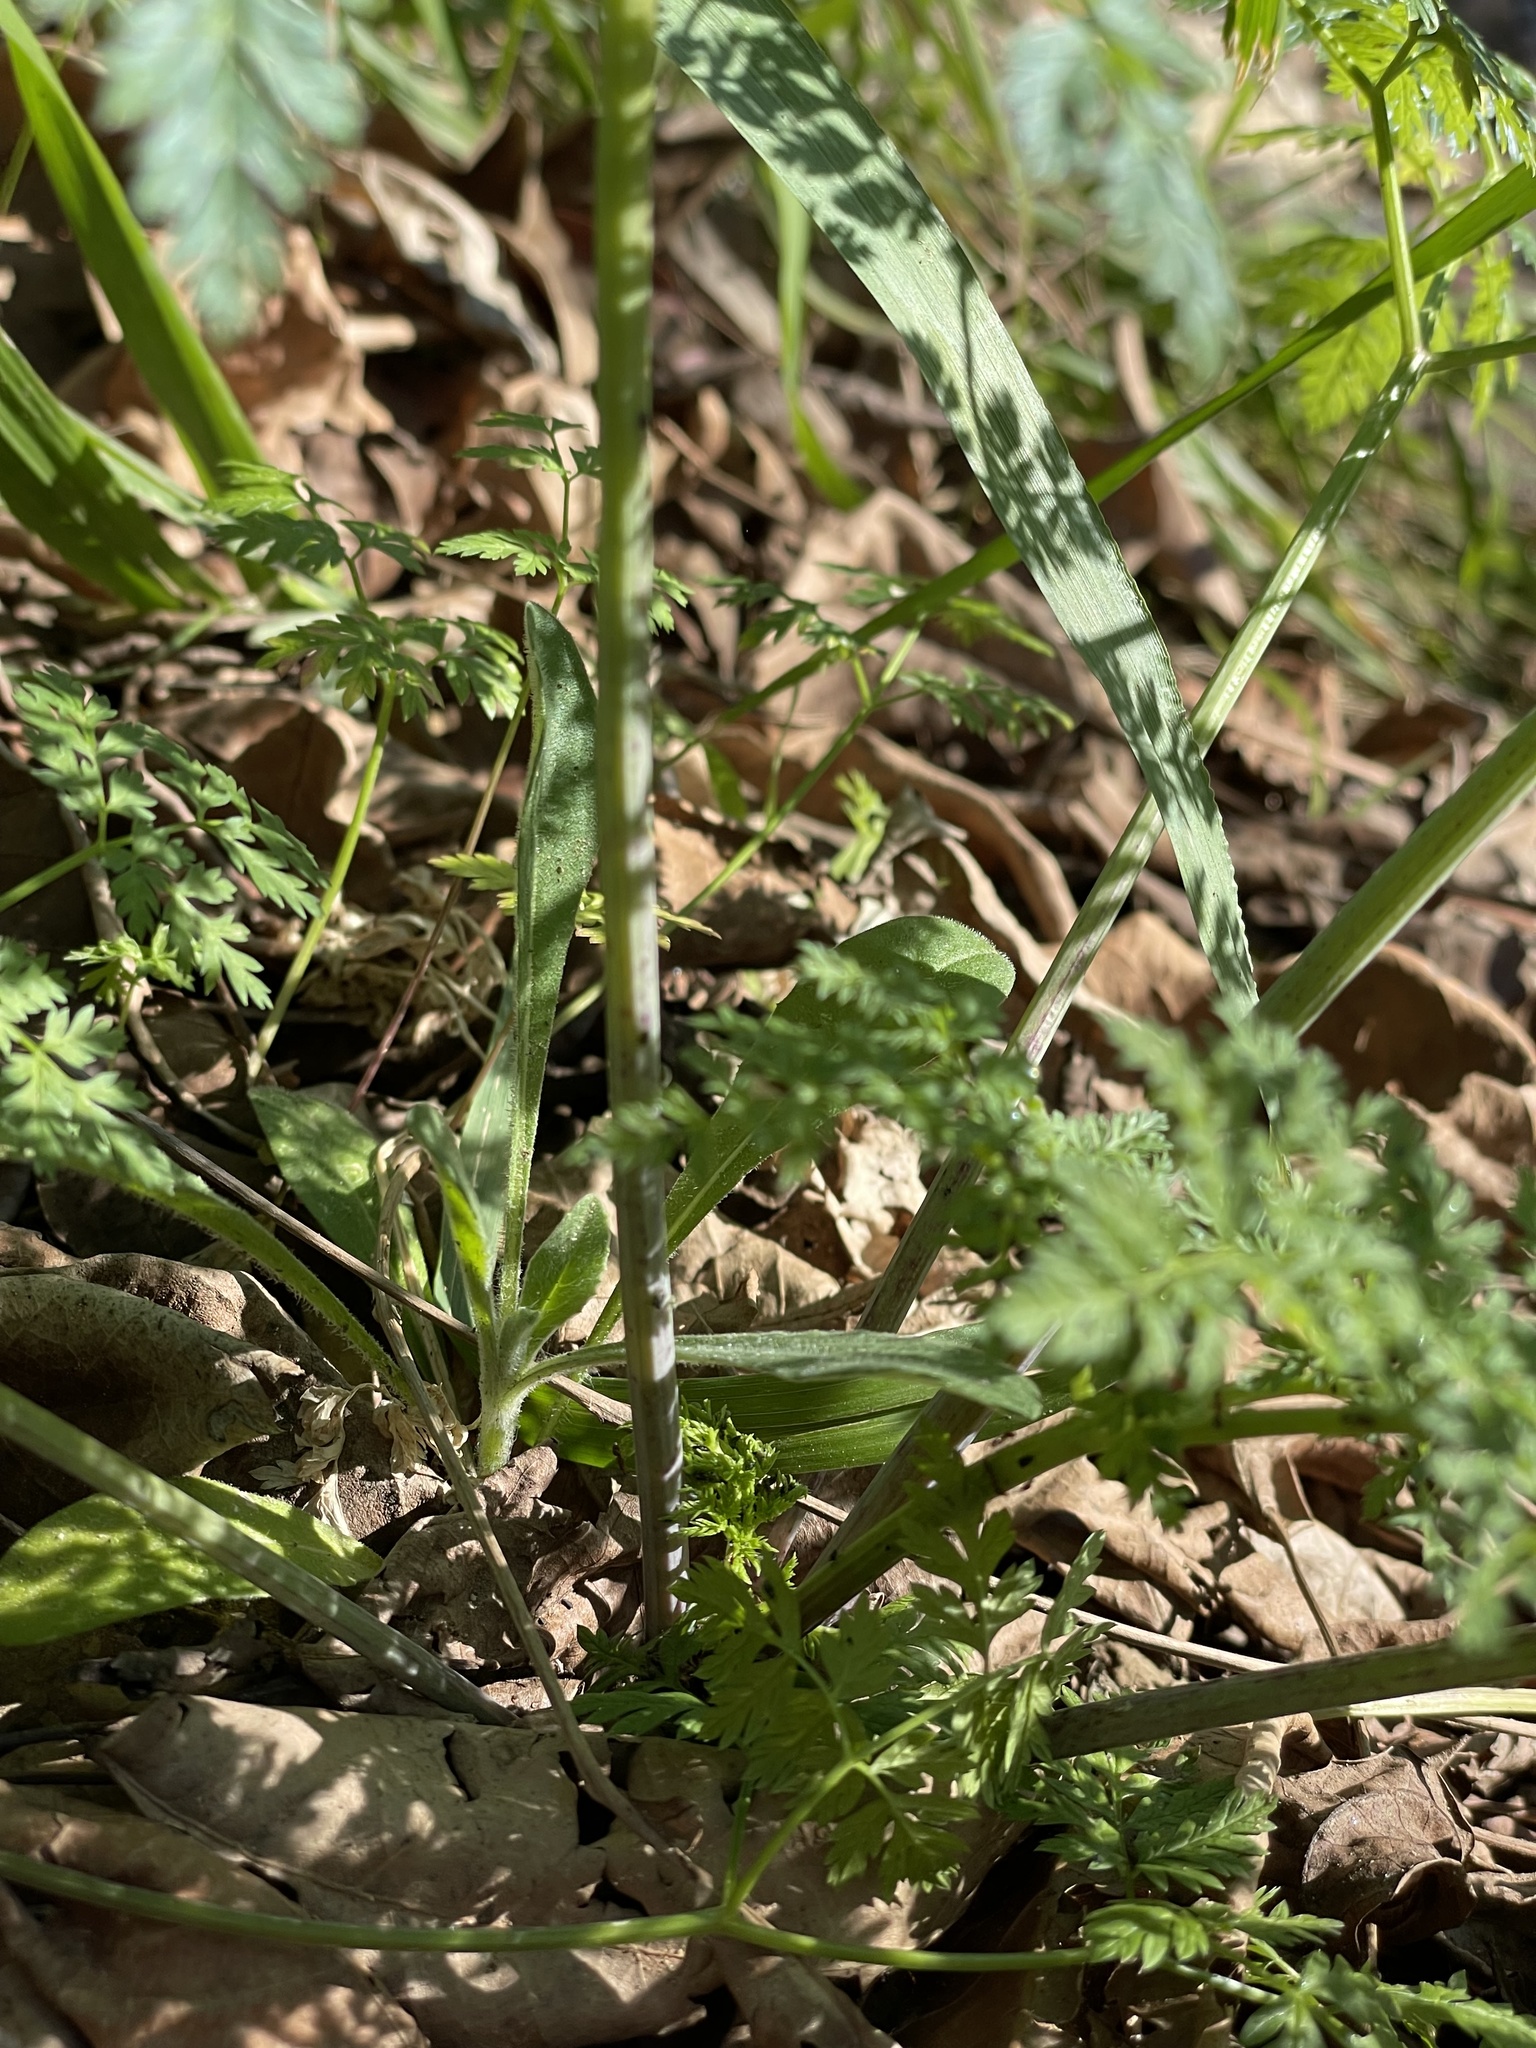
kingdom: Plantae
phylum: Tracheophyta
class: Magnoliopsida
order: Apiales
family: Apiaceae
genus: Conium
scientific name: Conium maculatum
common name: Hemlock
